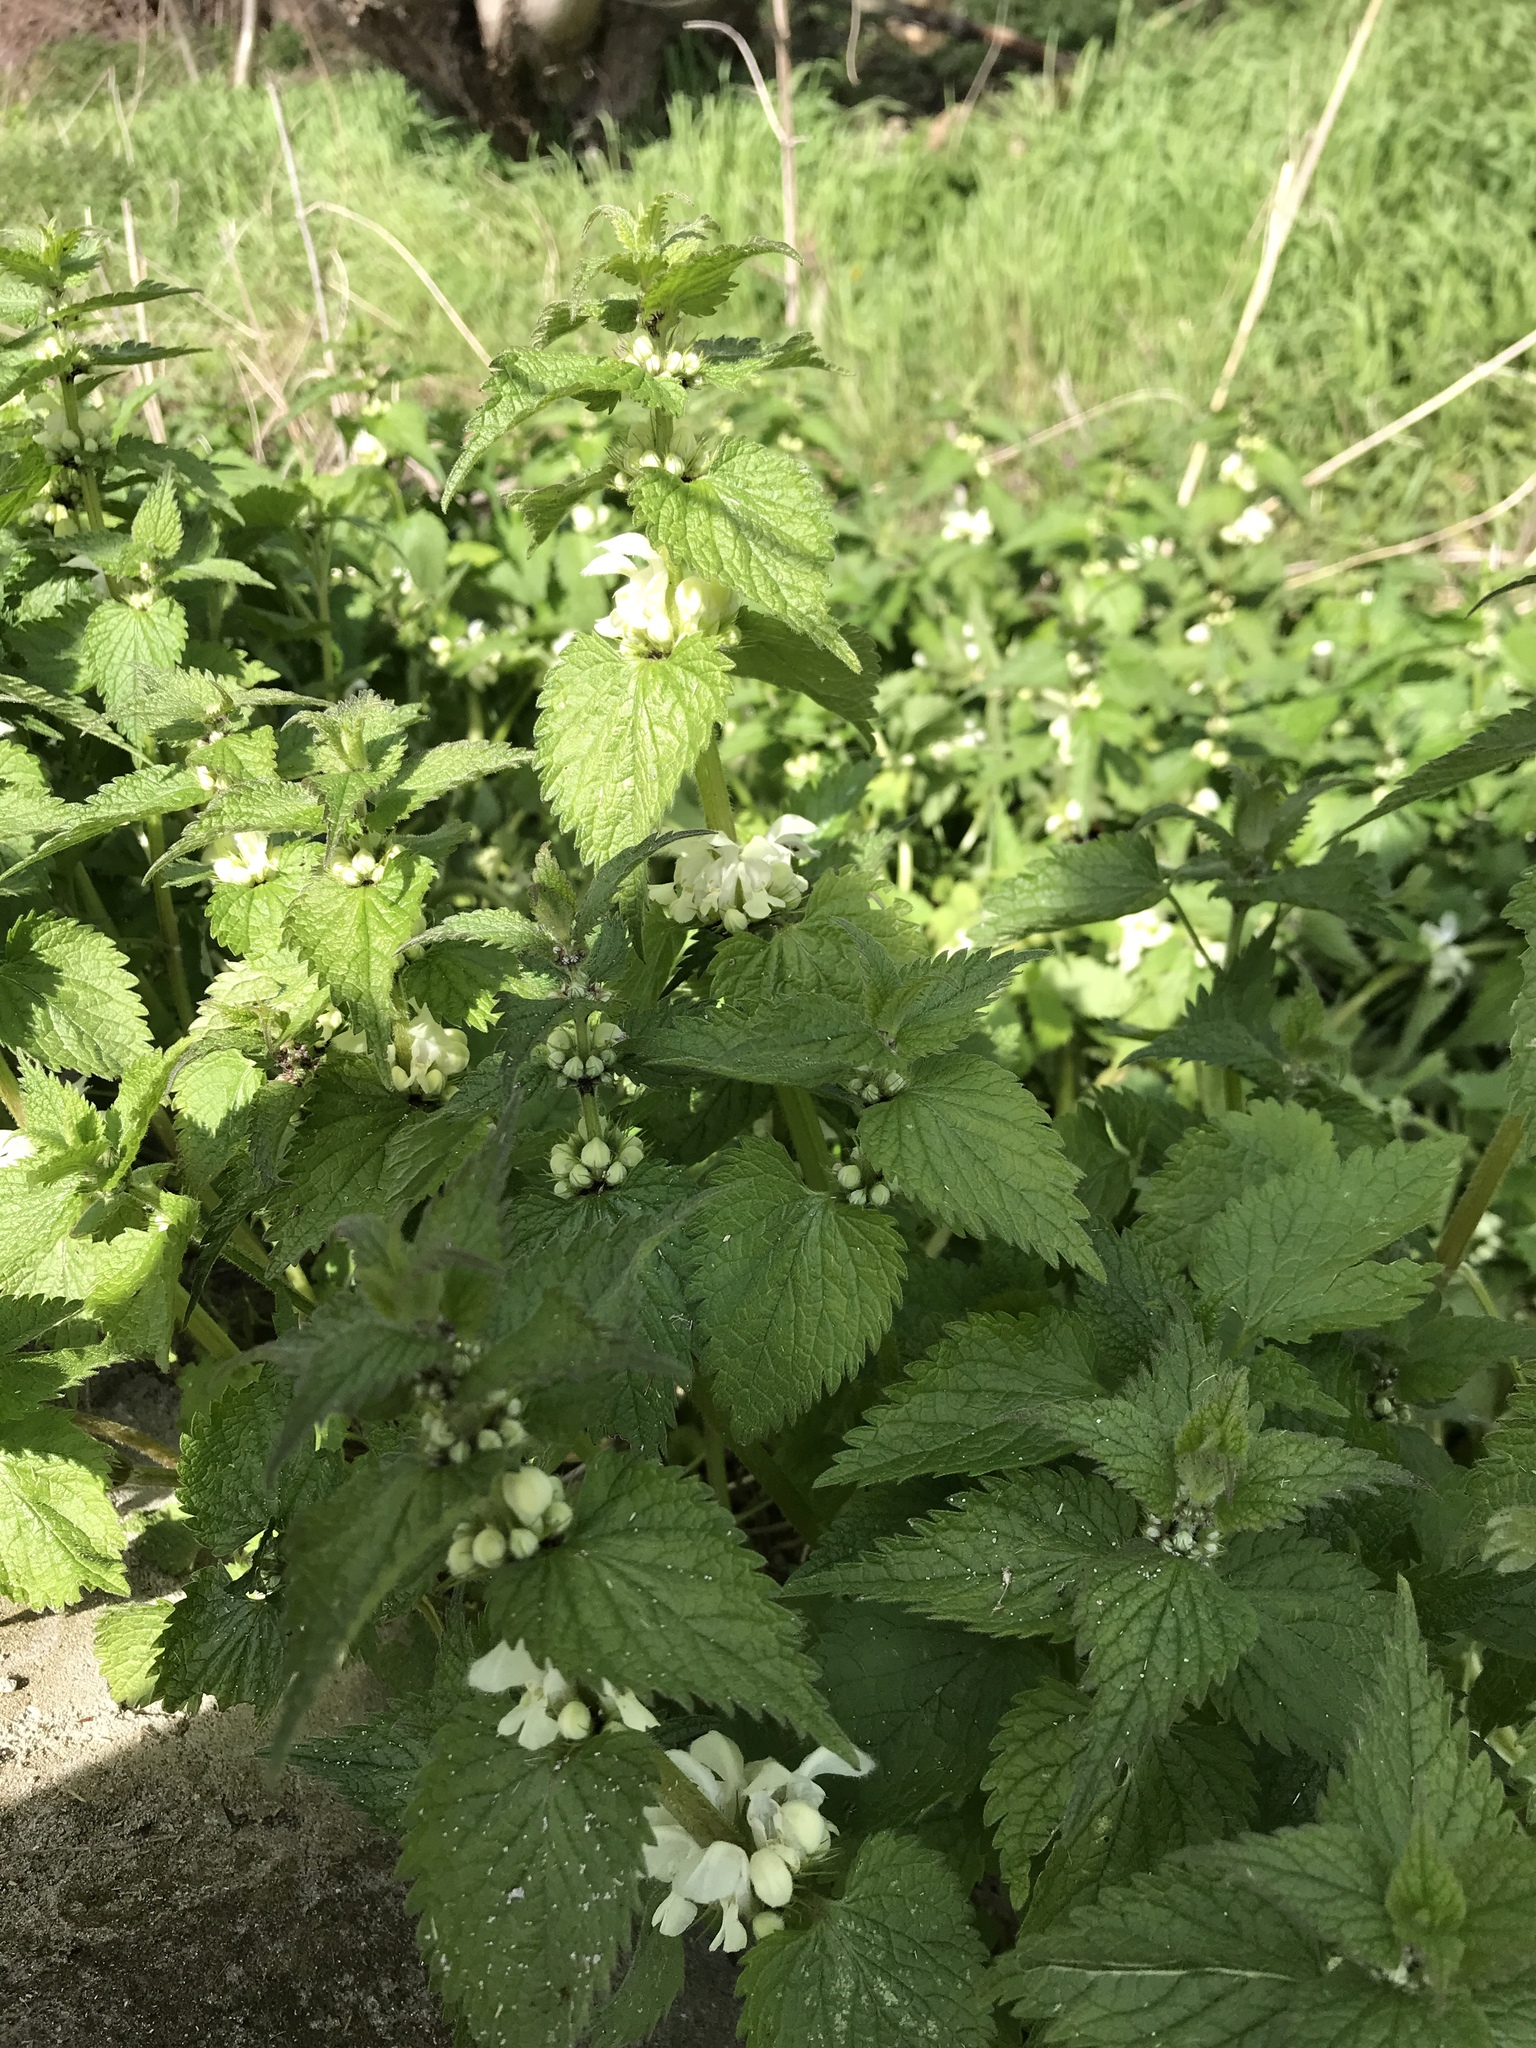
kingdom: Plantae
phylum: Tracheophyta
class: Magnoliopsida
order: Lamiales
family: Lamiaceae
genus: Lamium
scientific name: Lamium album
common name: White dead-nettle
